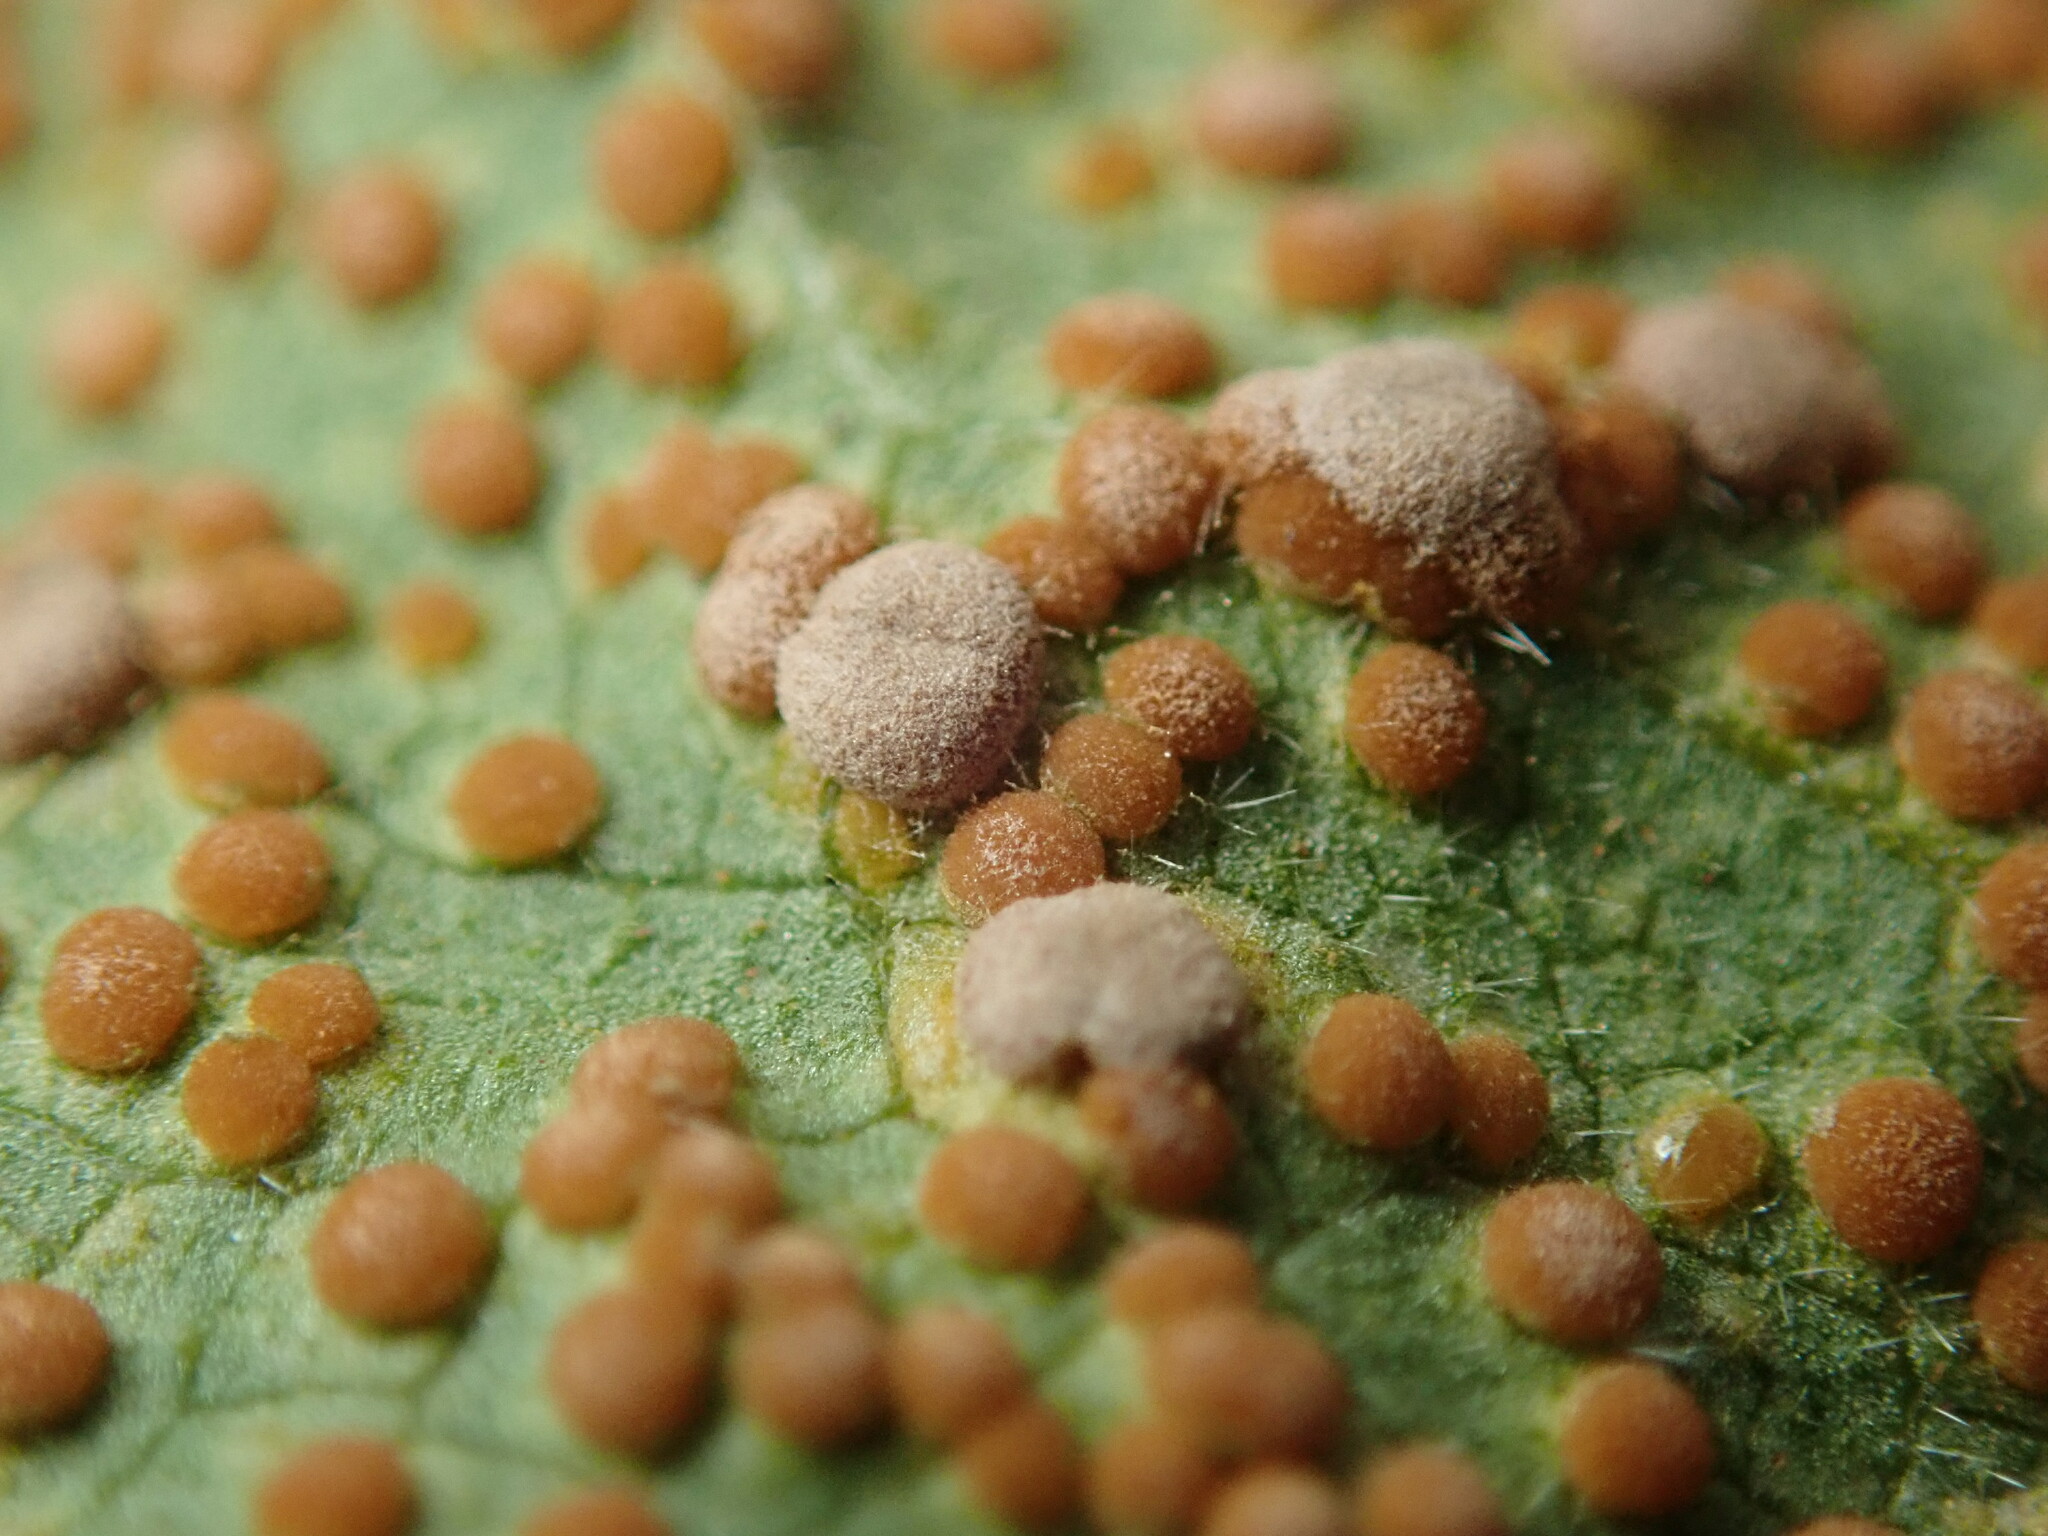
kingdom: Fungi
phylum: Basidiomycota
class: Pucciniomycetes
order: Pucciniales
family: Pucciniaceae
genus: Puccinia
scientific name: Puccinia malvacearum
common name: Hollyhock rust
